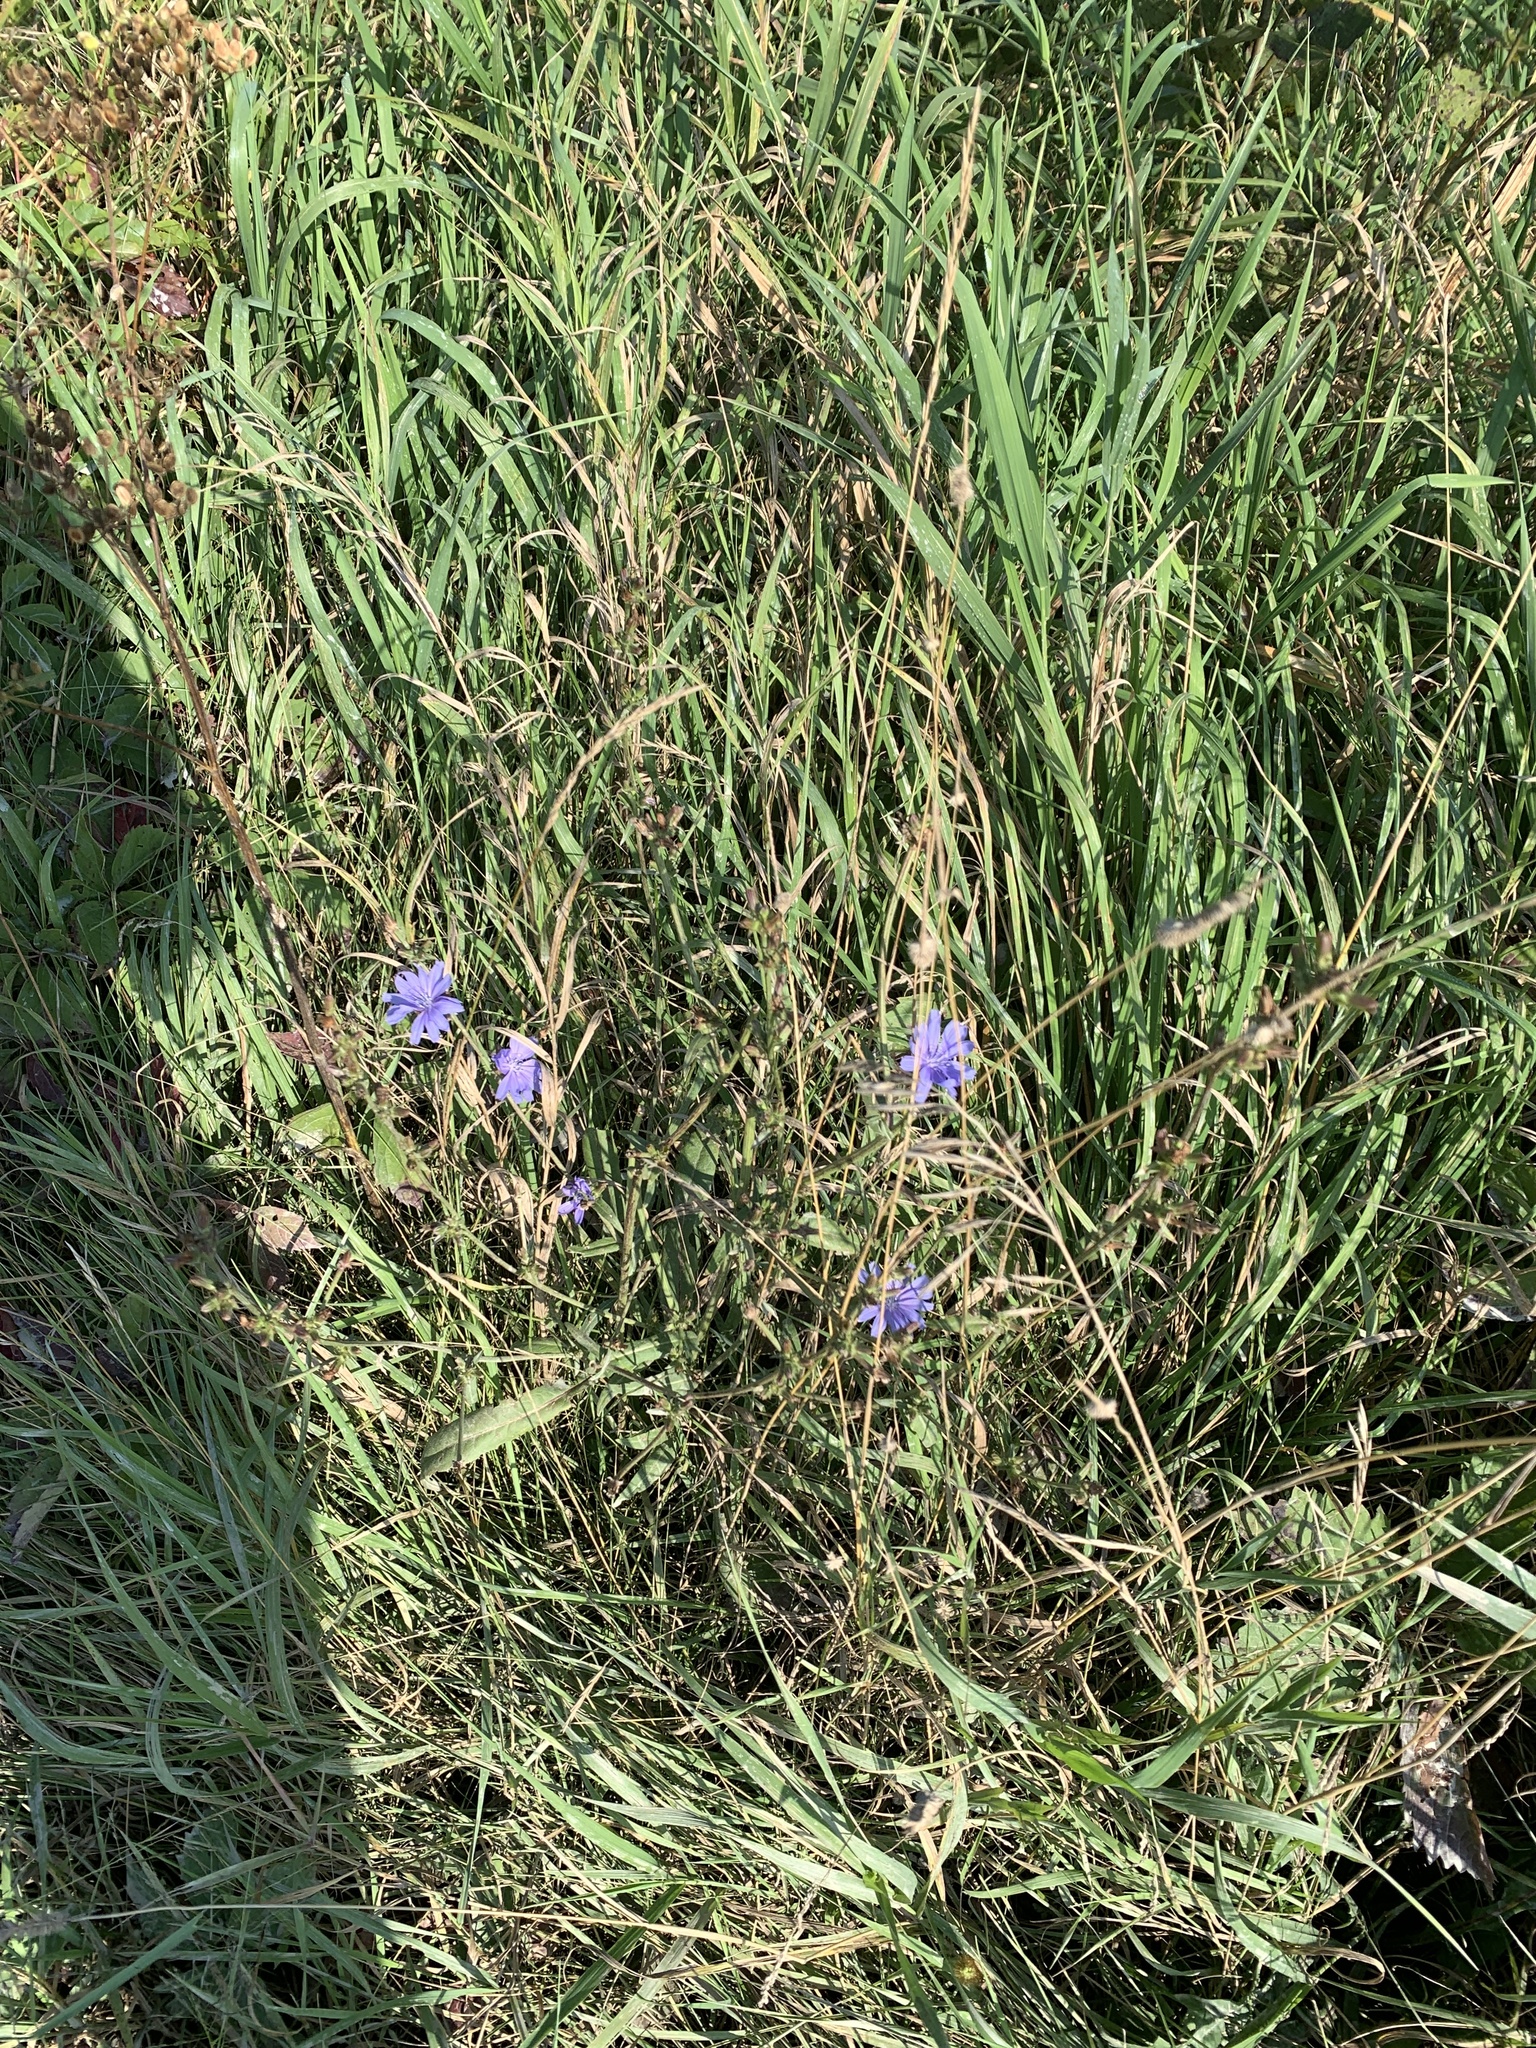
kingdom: Plantae
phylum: Tracheophyta
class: Magnoliopsida
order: Asterales
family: Asteraceae
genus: Cichorium
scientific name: Cichorium intybus
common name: Chicory
